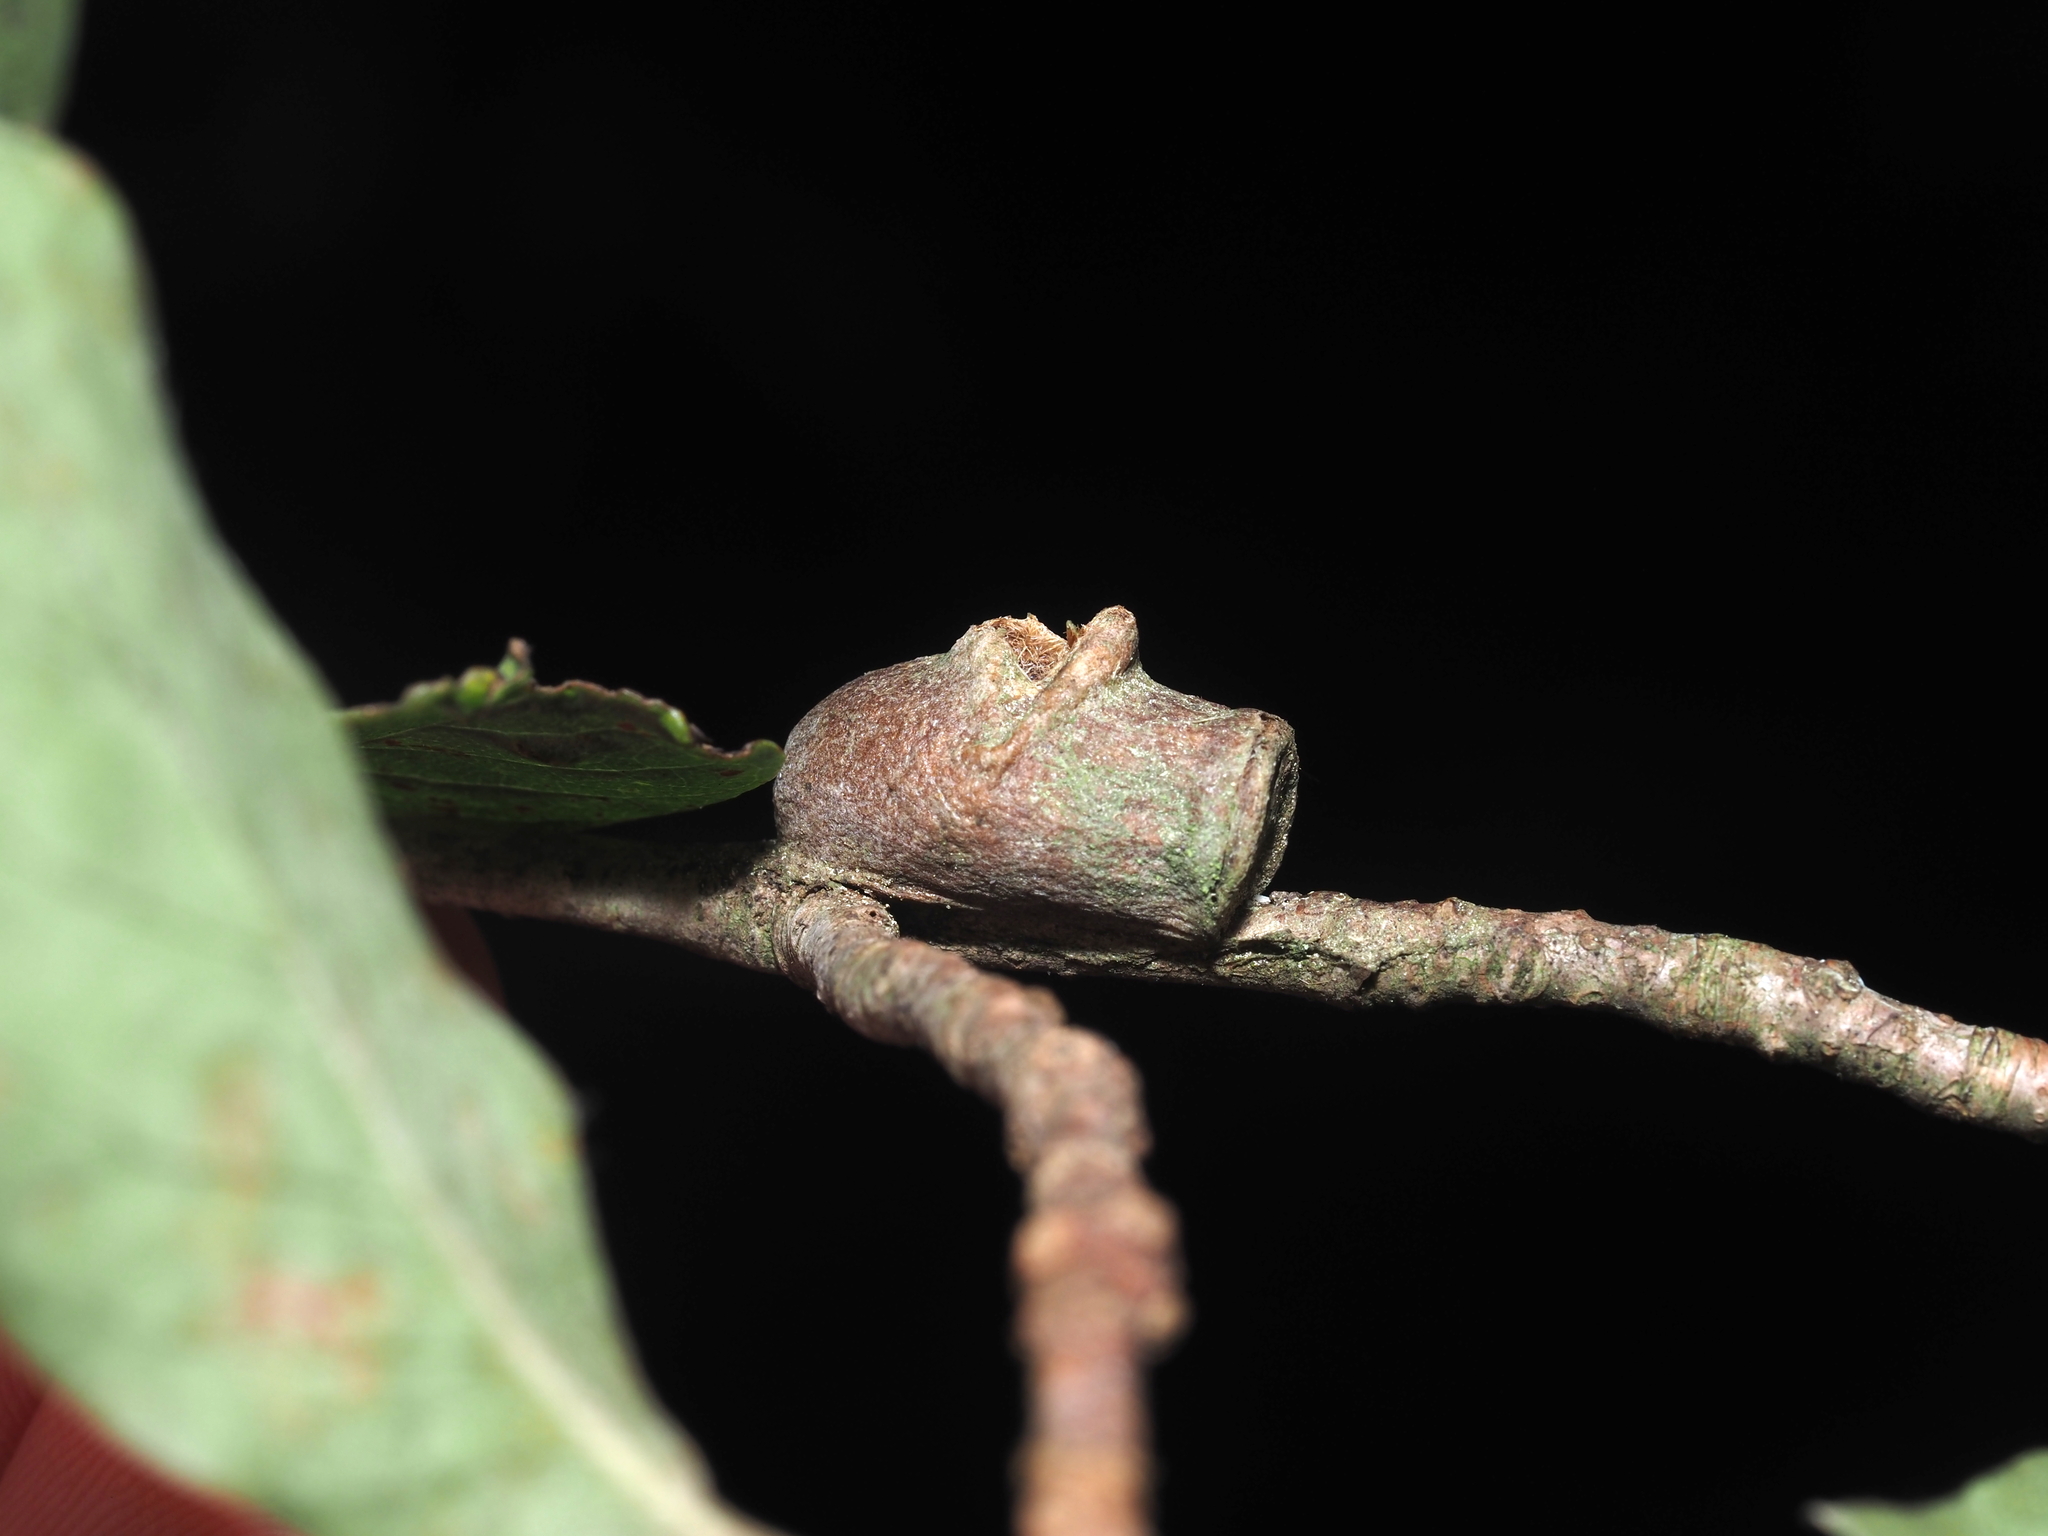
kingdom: Animalia
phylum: Arthropoda
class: Insecta
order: Lepidoptera
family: Megalopygidae
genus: Megalopyge
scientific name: Megalopyge
